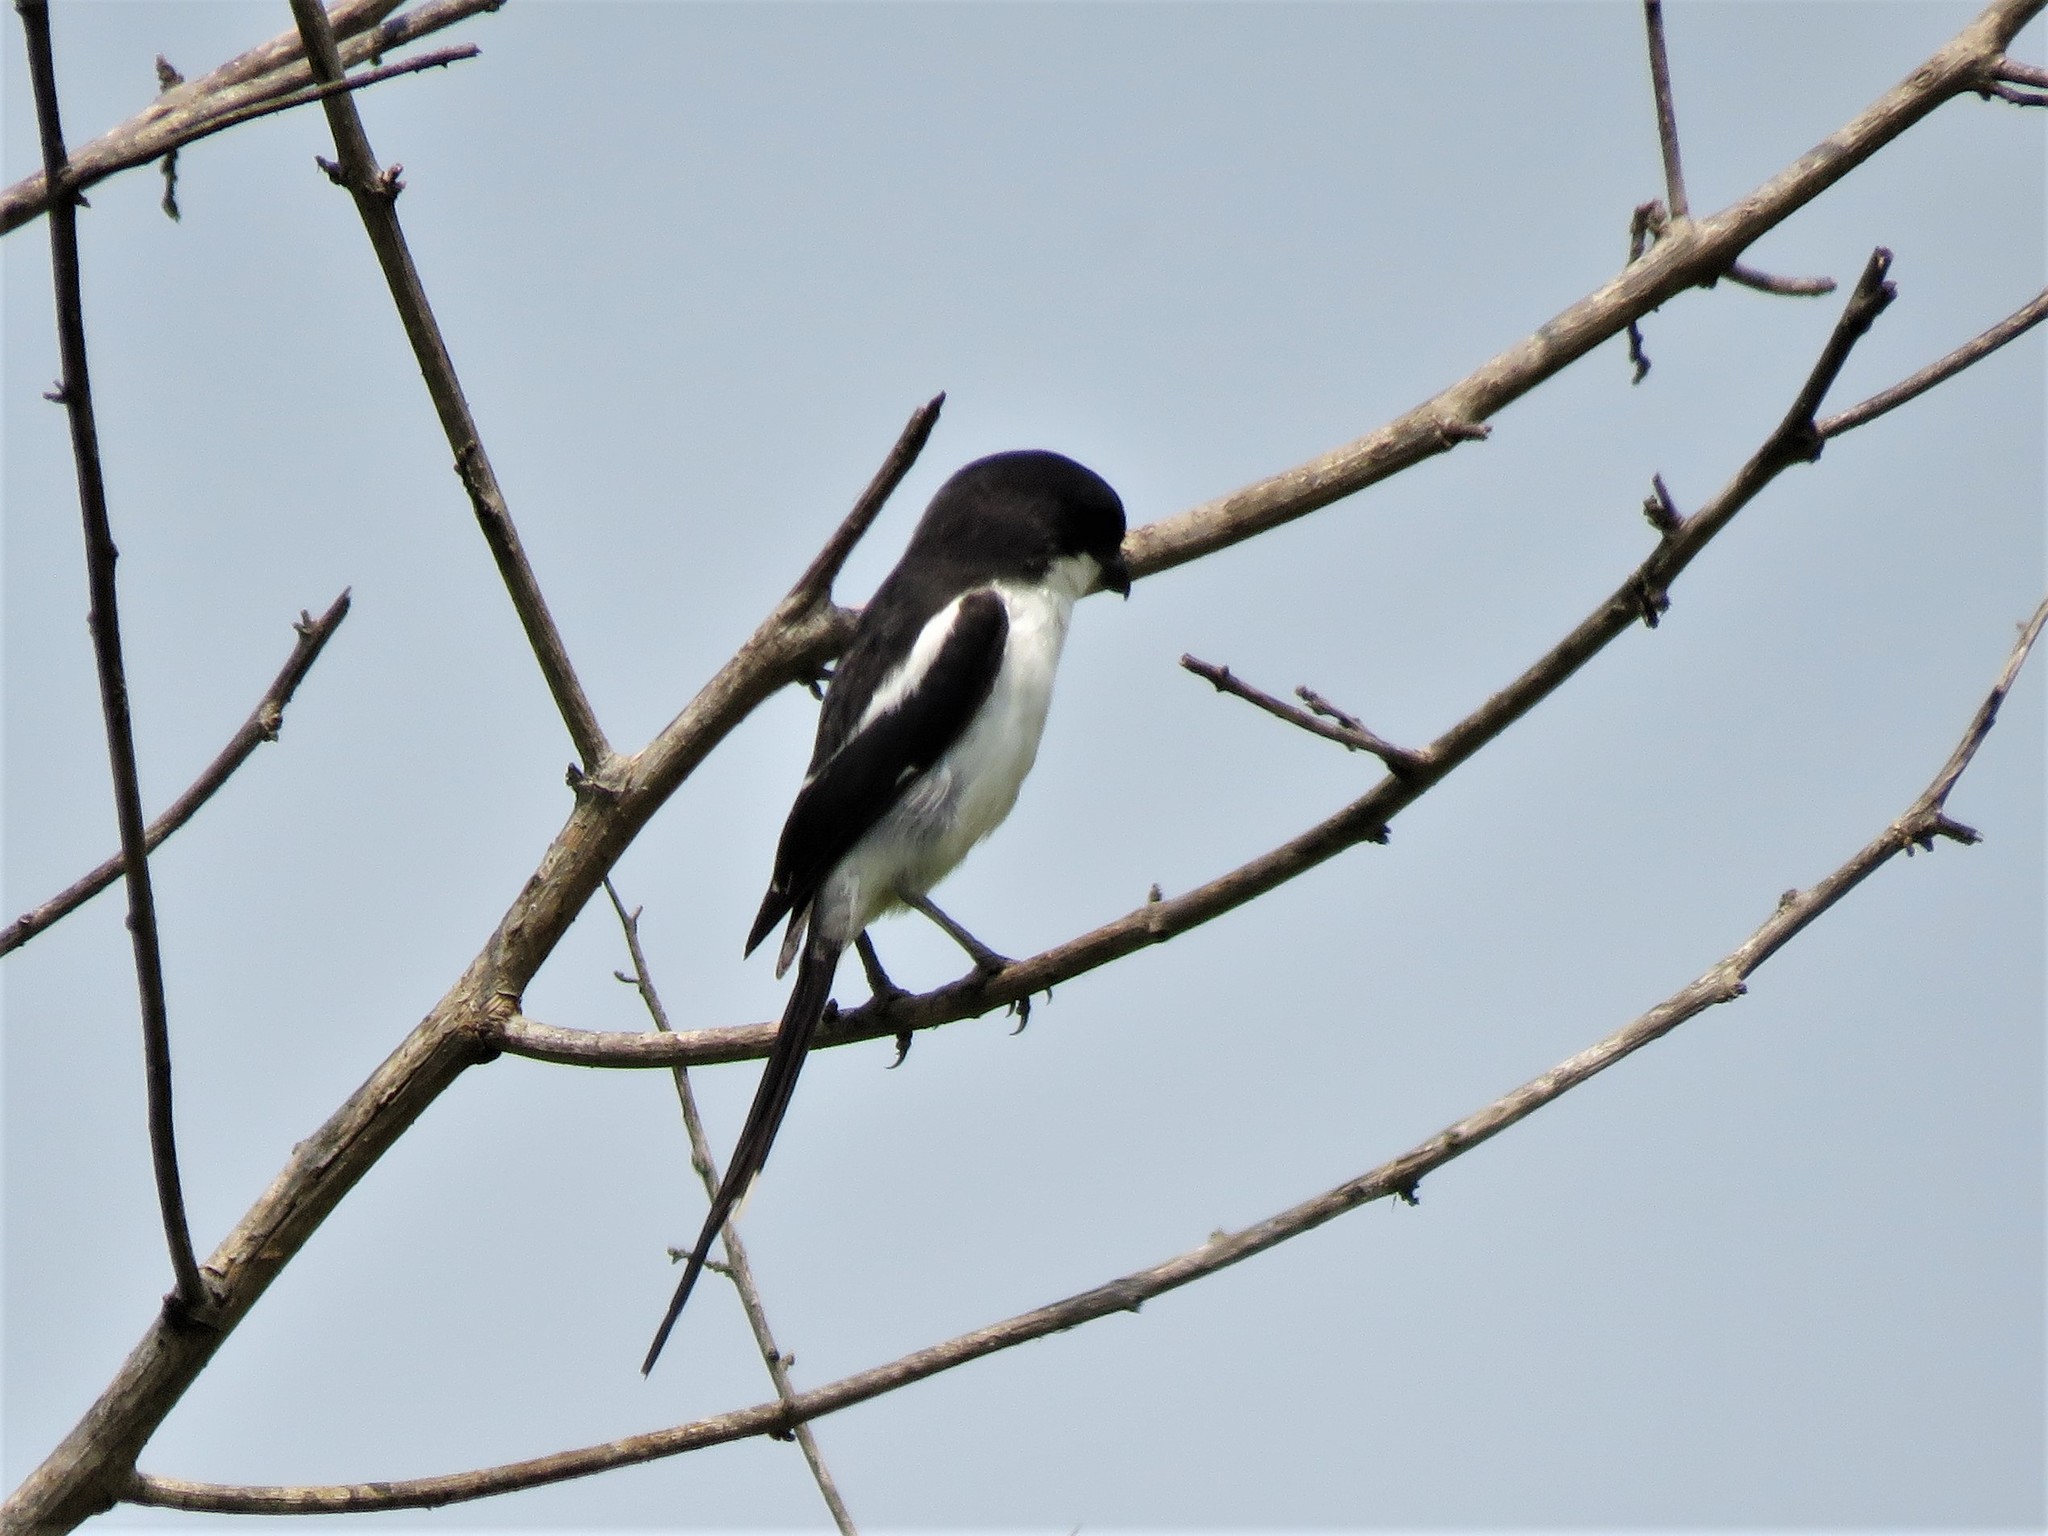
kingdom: Animalia
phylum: Chordata
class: Aves
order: Passeriformes
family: Laniidae
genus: Lanius
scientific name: Lanius humeralis
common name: Northern fiscal
